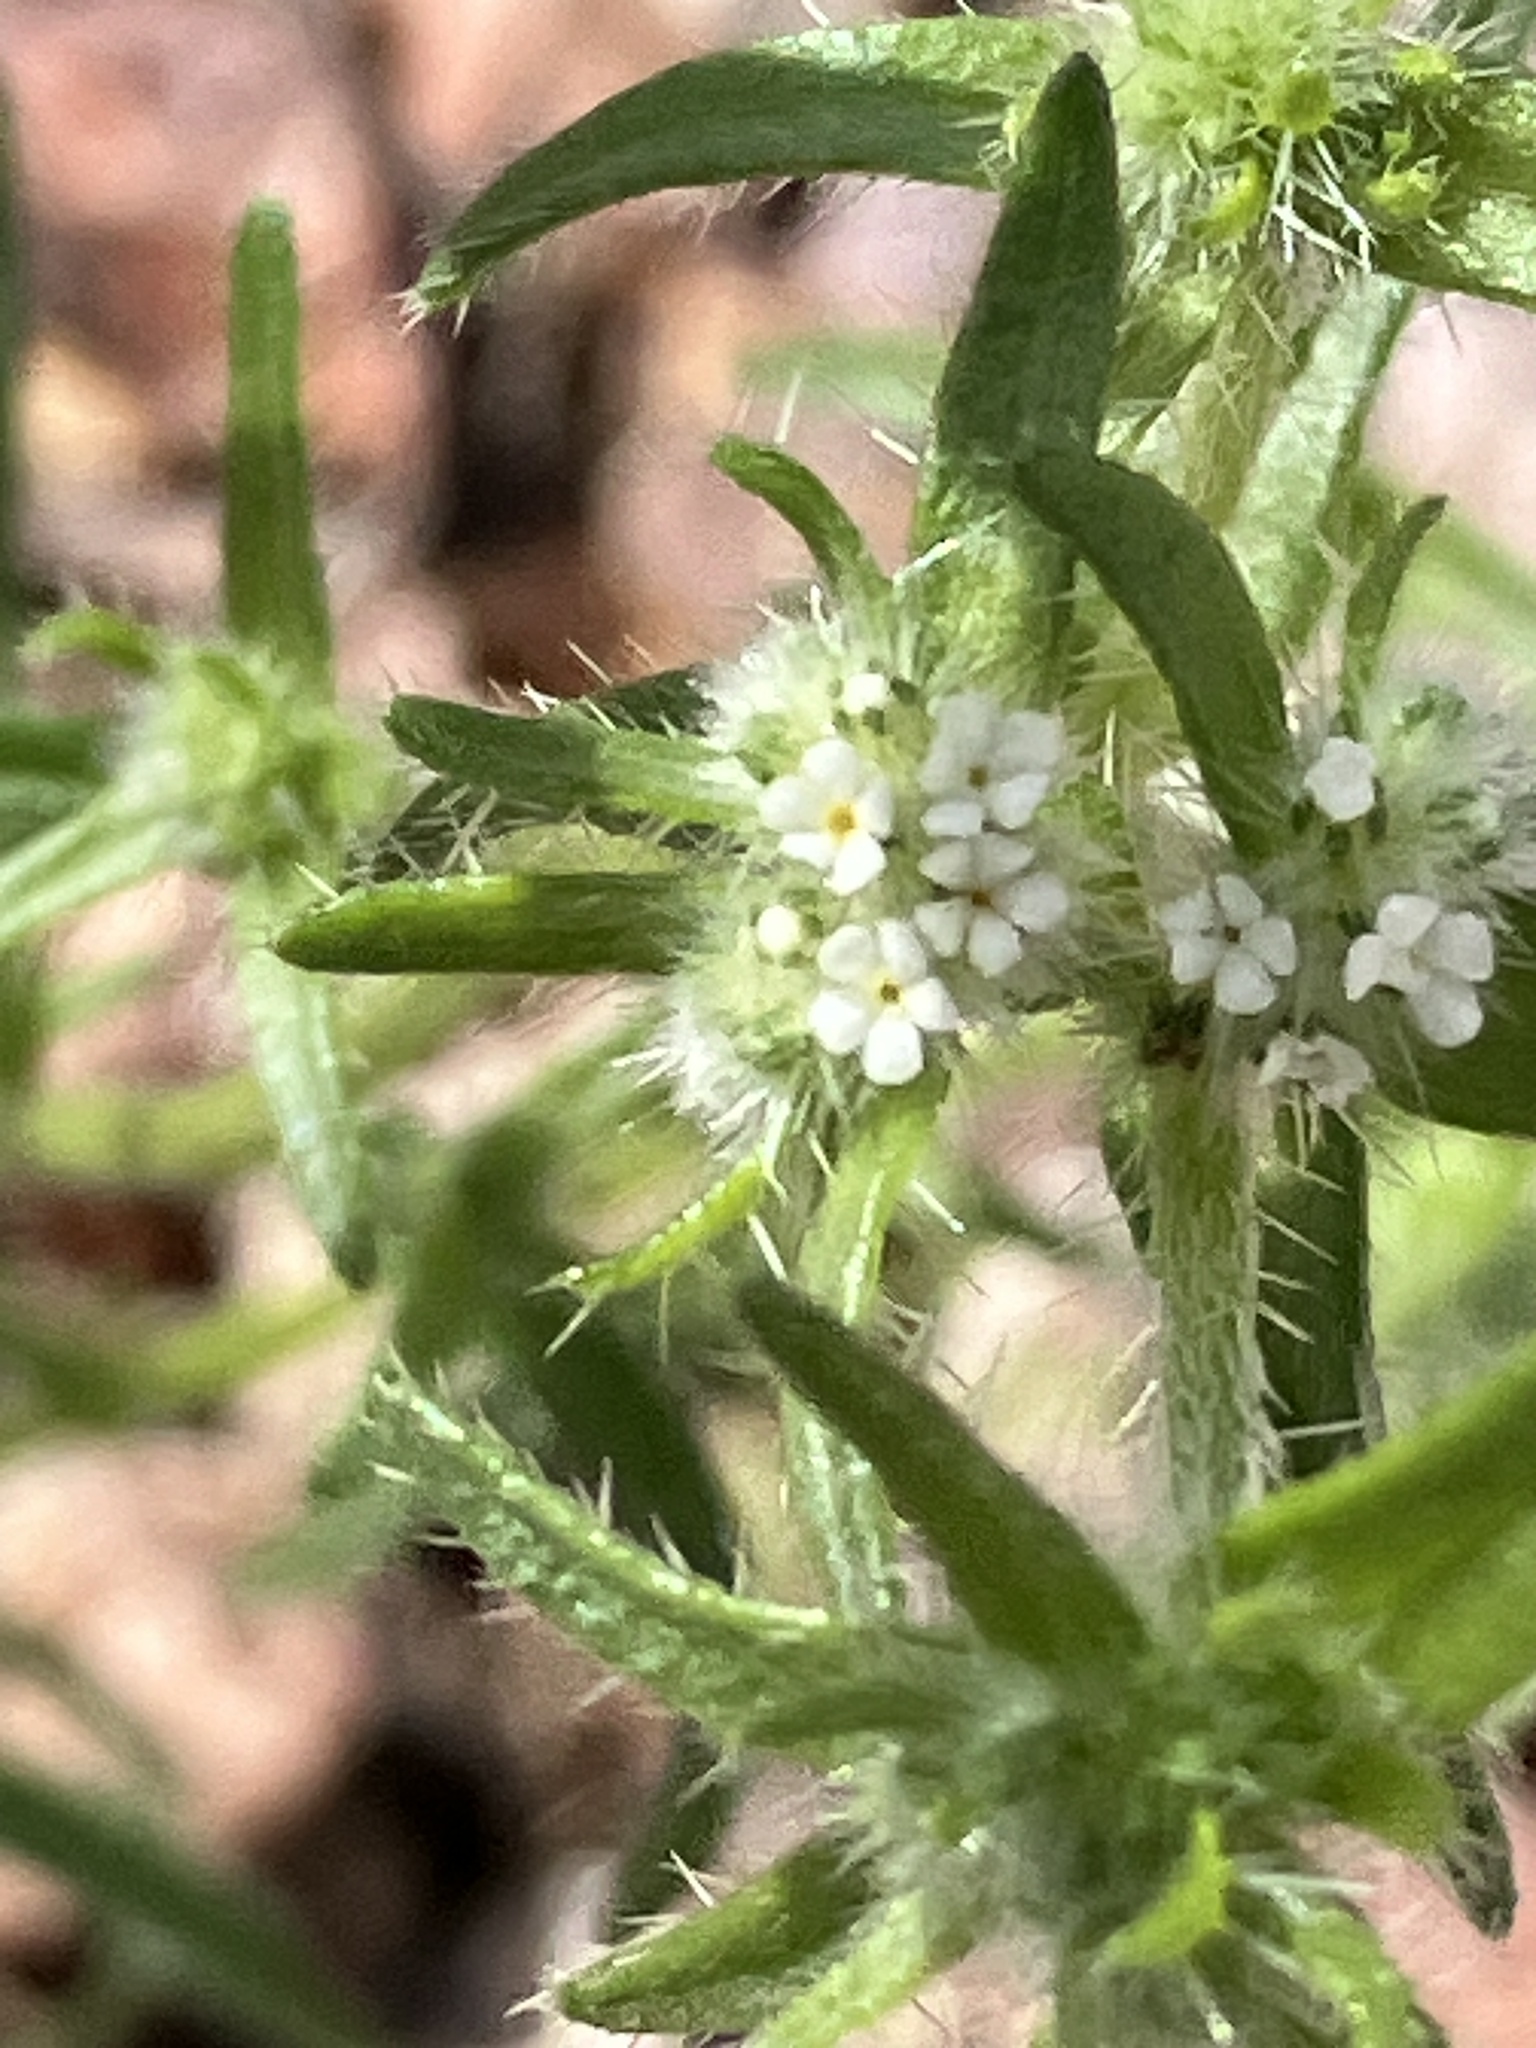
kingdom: Plantae
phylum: Tracheophyta
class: Magnoliopsida
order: Boraginales
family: Boraginaceae
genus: Cryptantha
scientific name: Cryptantha maritima
